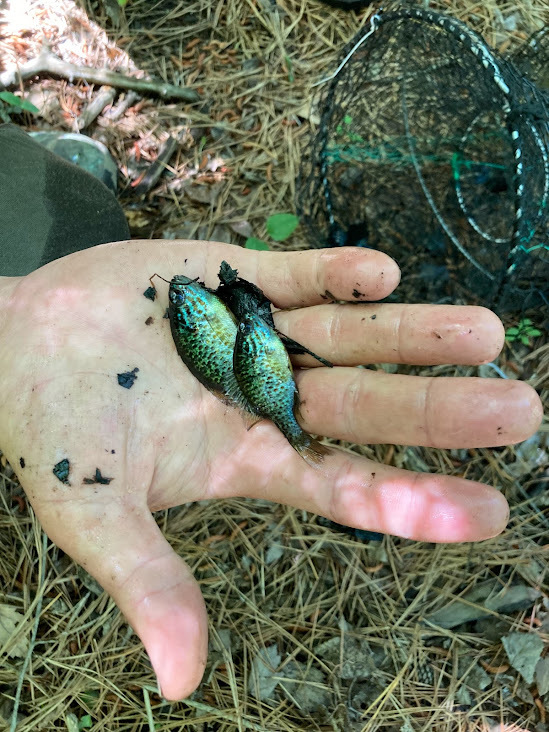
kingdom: Animalia
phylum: Chordata
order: Perciformes
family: Centrarchidae
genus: Lepomis
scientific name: Lepomis gibbosus
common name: Pumpkinseed
